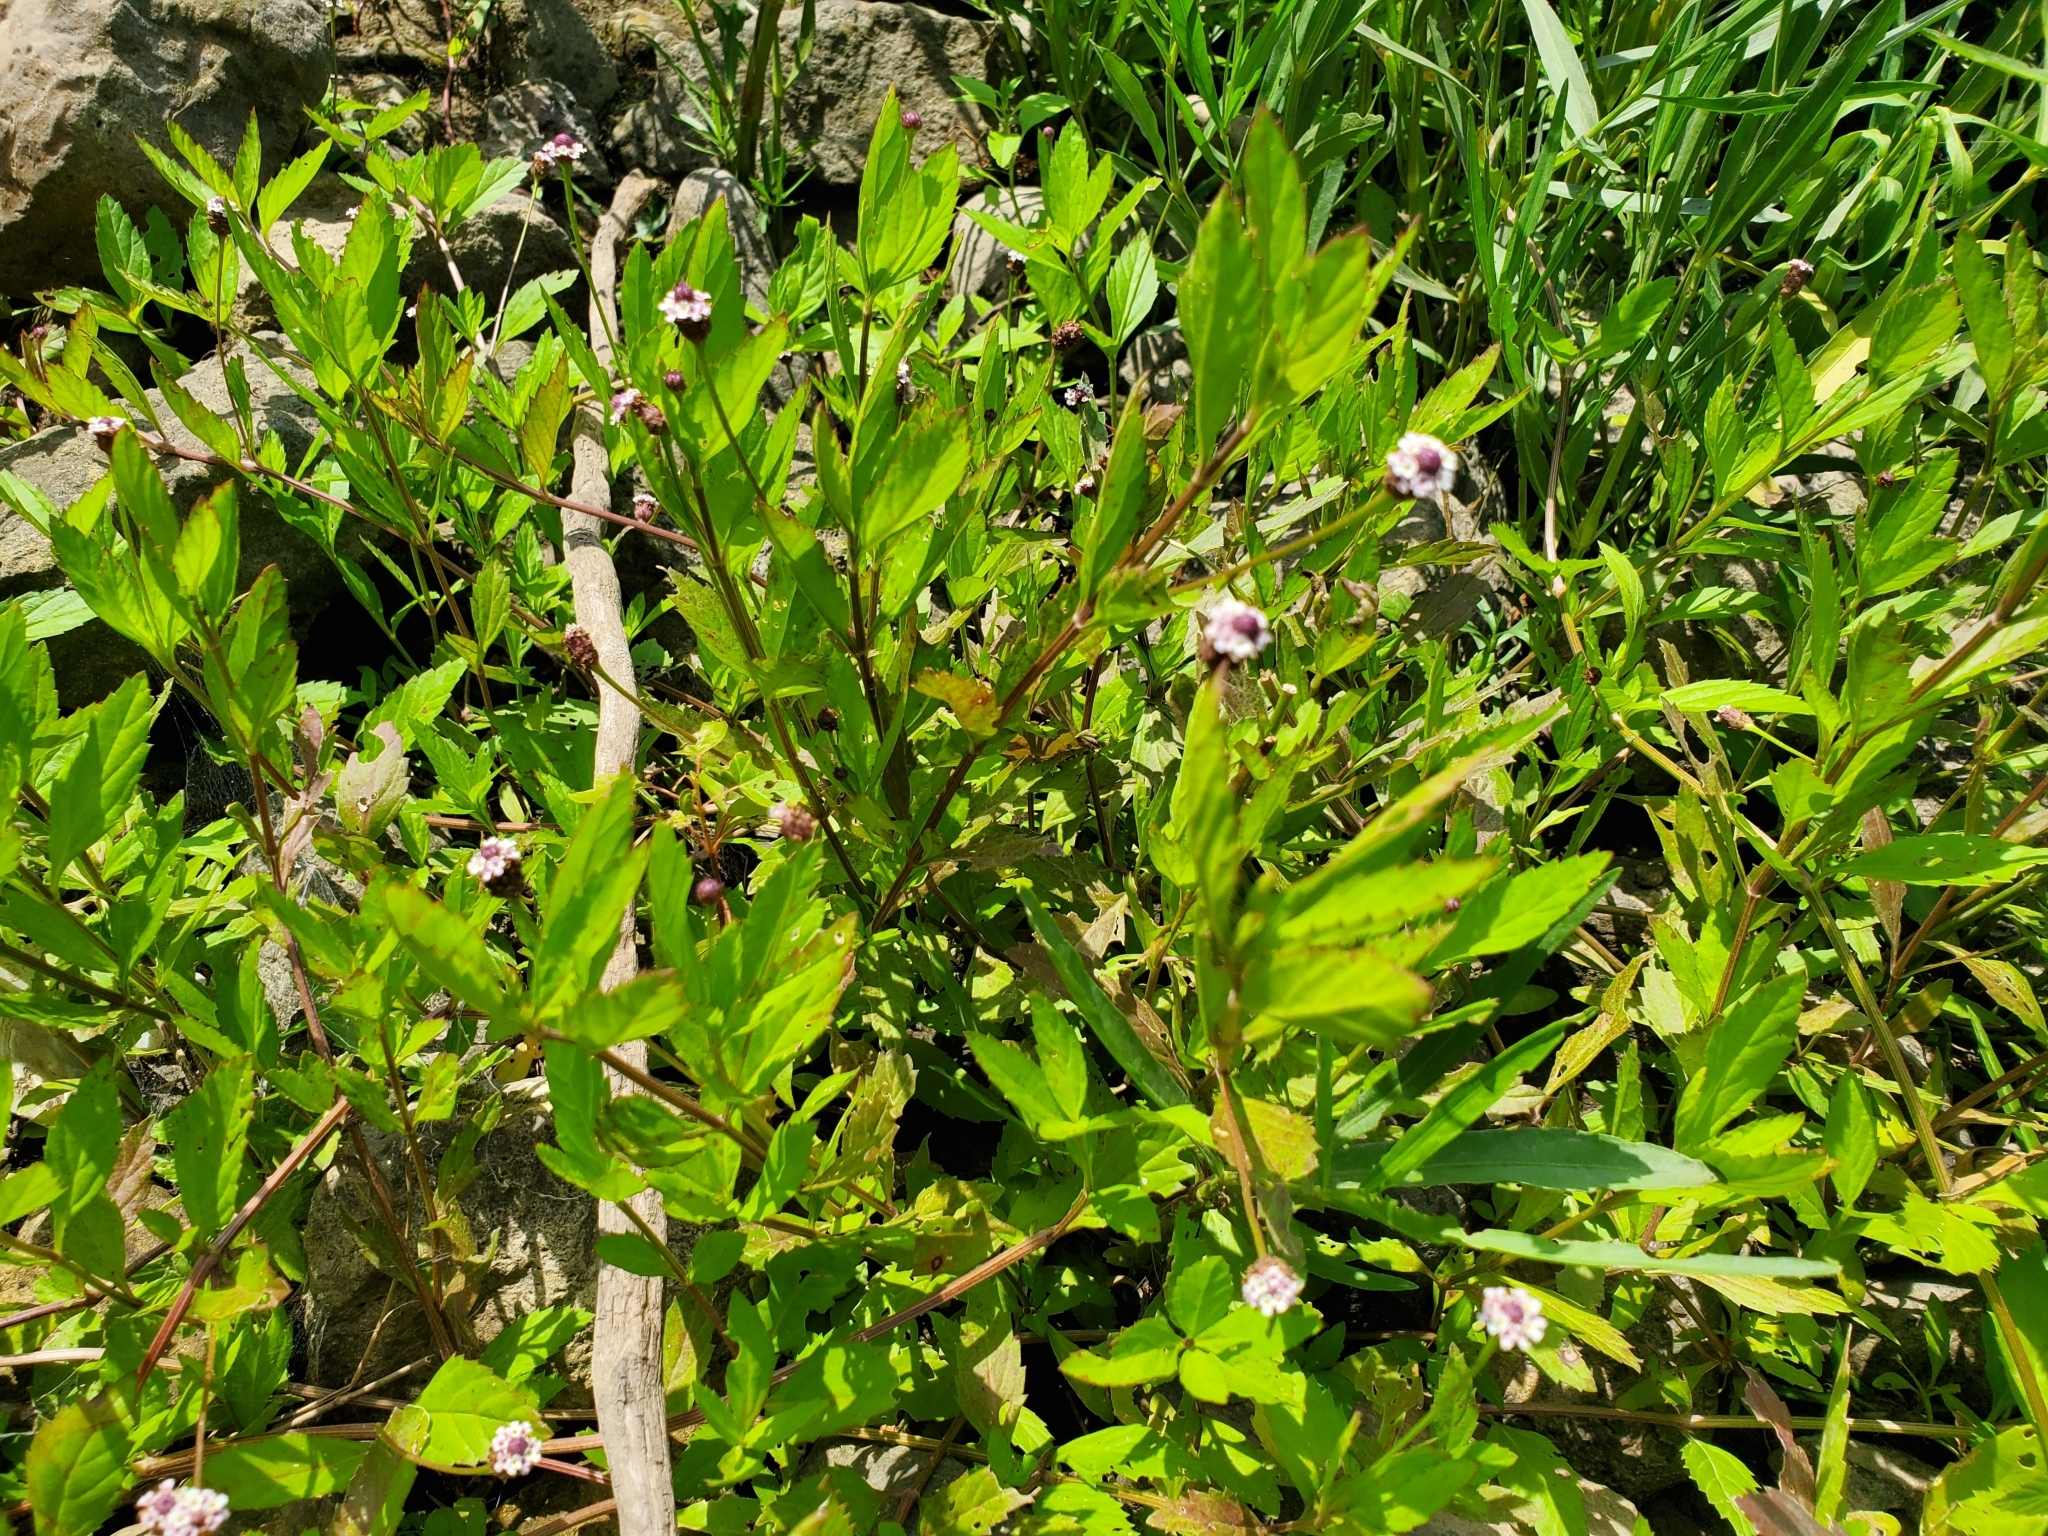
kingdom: Plantae
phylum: Tracheophyta
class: Magnoliopsida
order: Lamiales
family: Verbenaceae
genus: Phyla
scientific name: Phyla lanceolata
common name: Northern fogfruit
